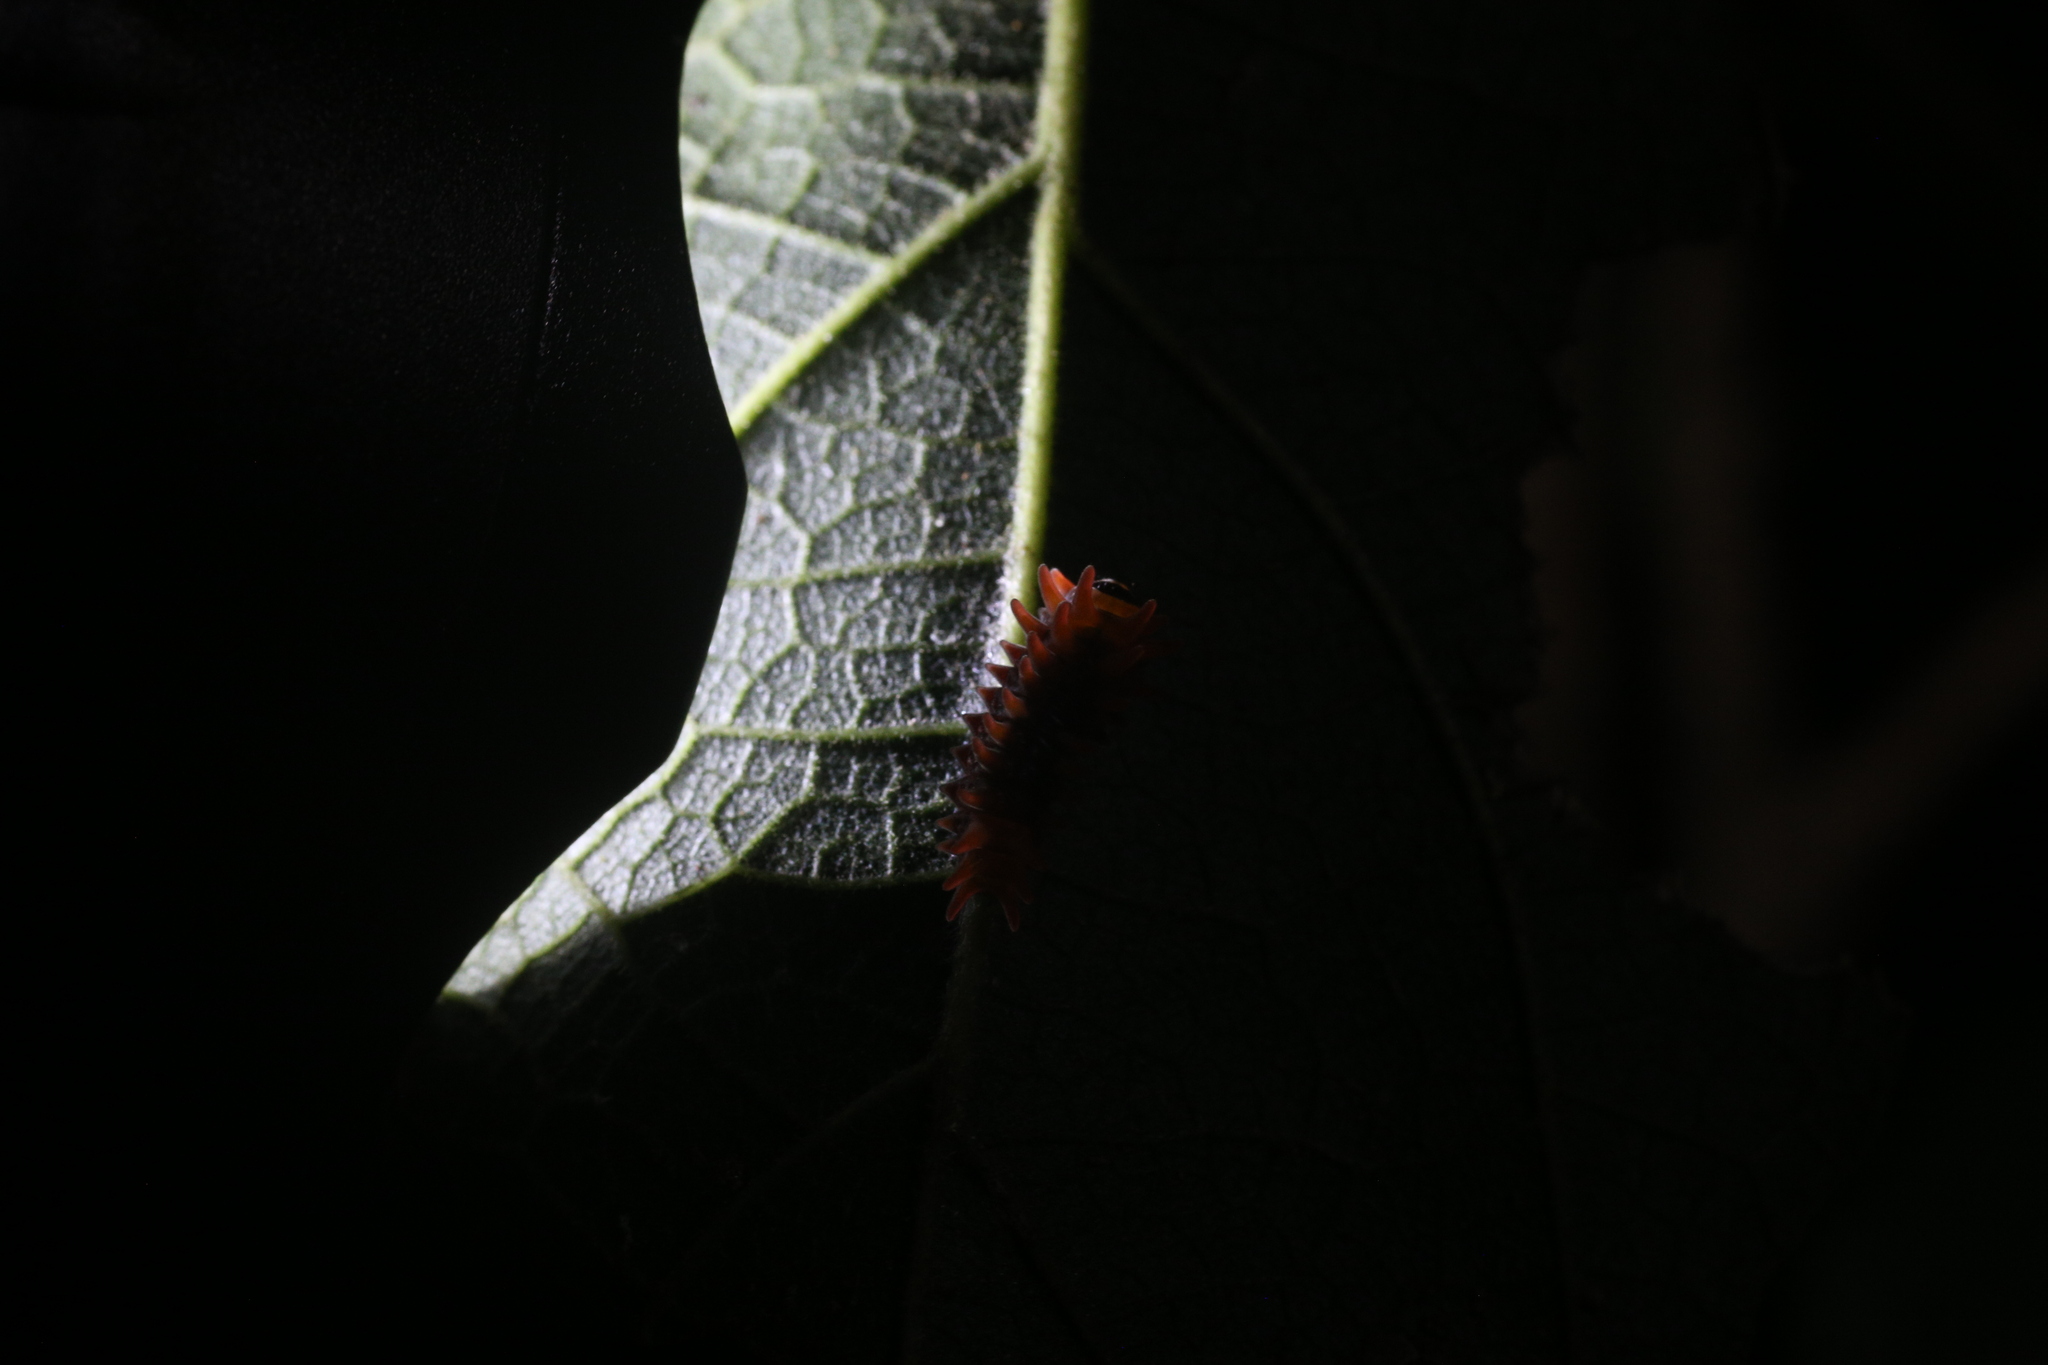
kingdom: Animalia
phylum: Arthropoda
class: Insecta
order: Lepidoptera
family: Papilionidae
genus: Pachliopta
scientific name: Pachliopta polydorus
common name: Red-bodied swallowtail
